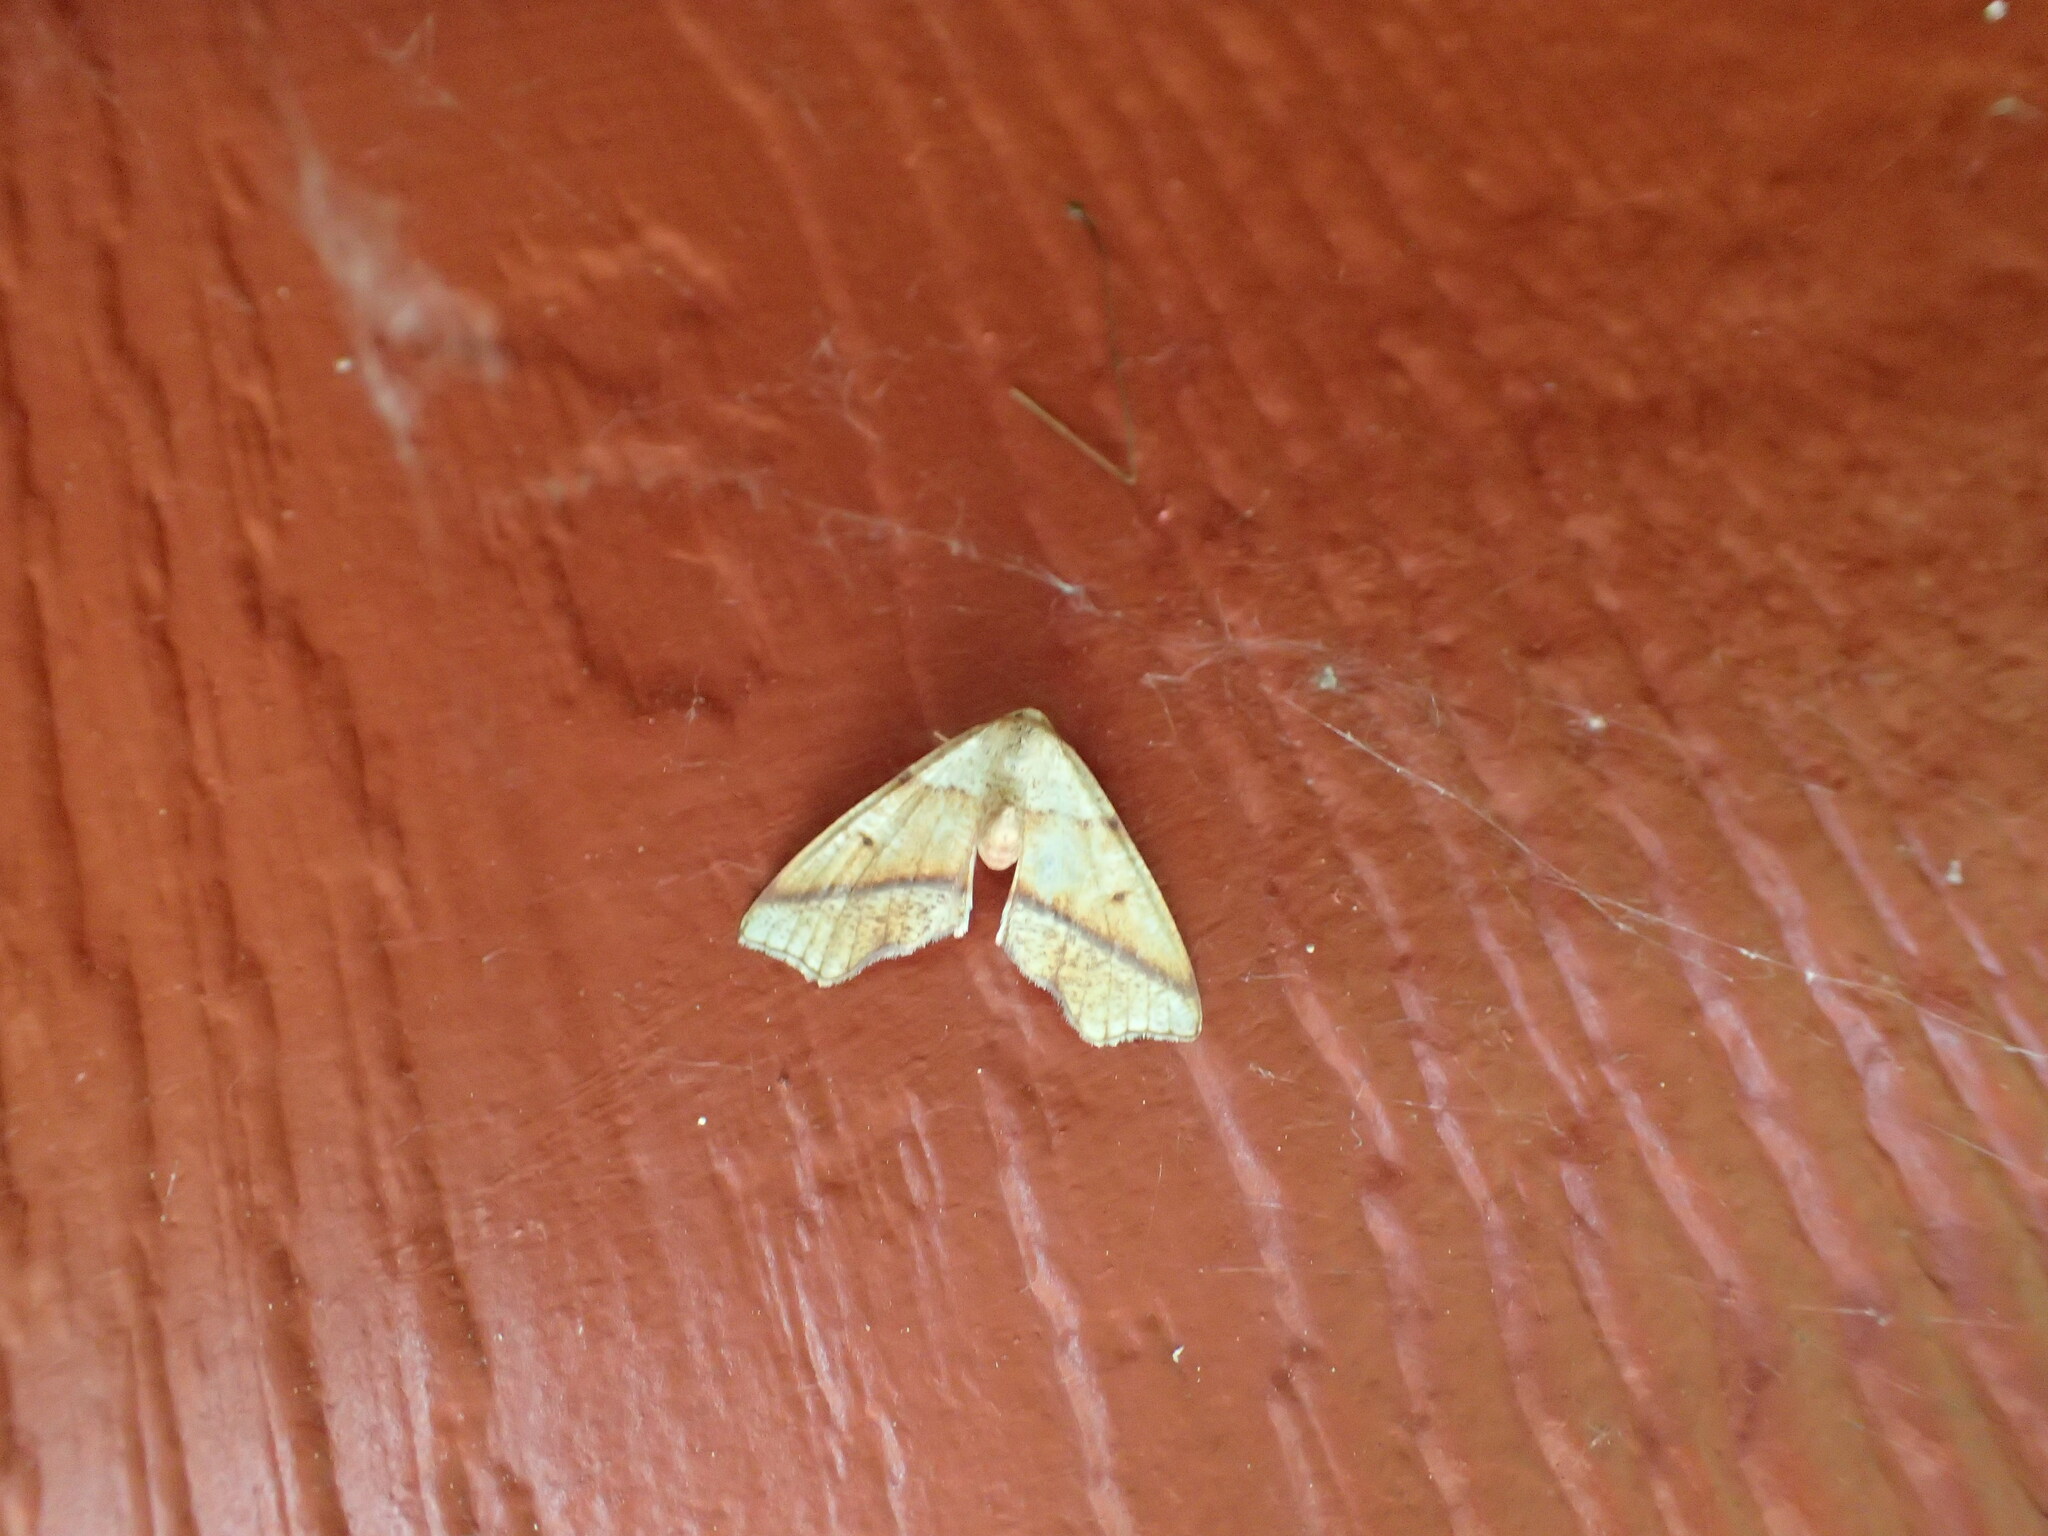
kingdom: Animalia
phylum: Arthropoda
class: Insecta
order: Lepidoptera
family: Geometridae
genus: Plagodis
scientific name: Plagodis alcoolaria
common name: Hollow-spotted plagodis
